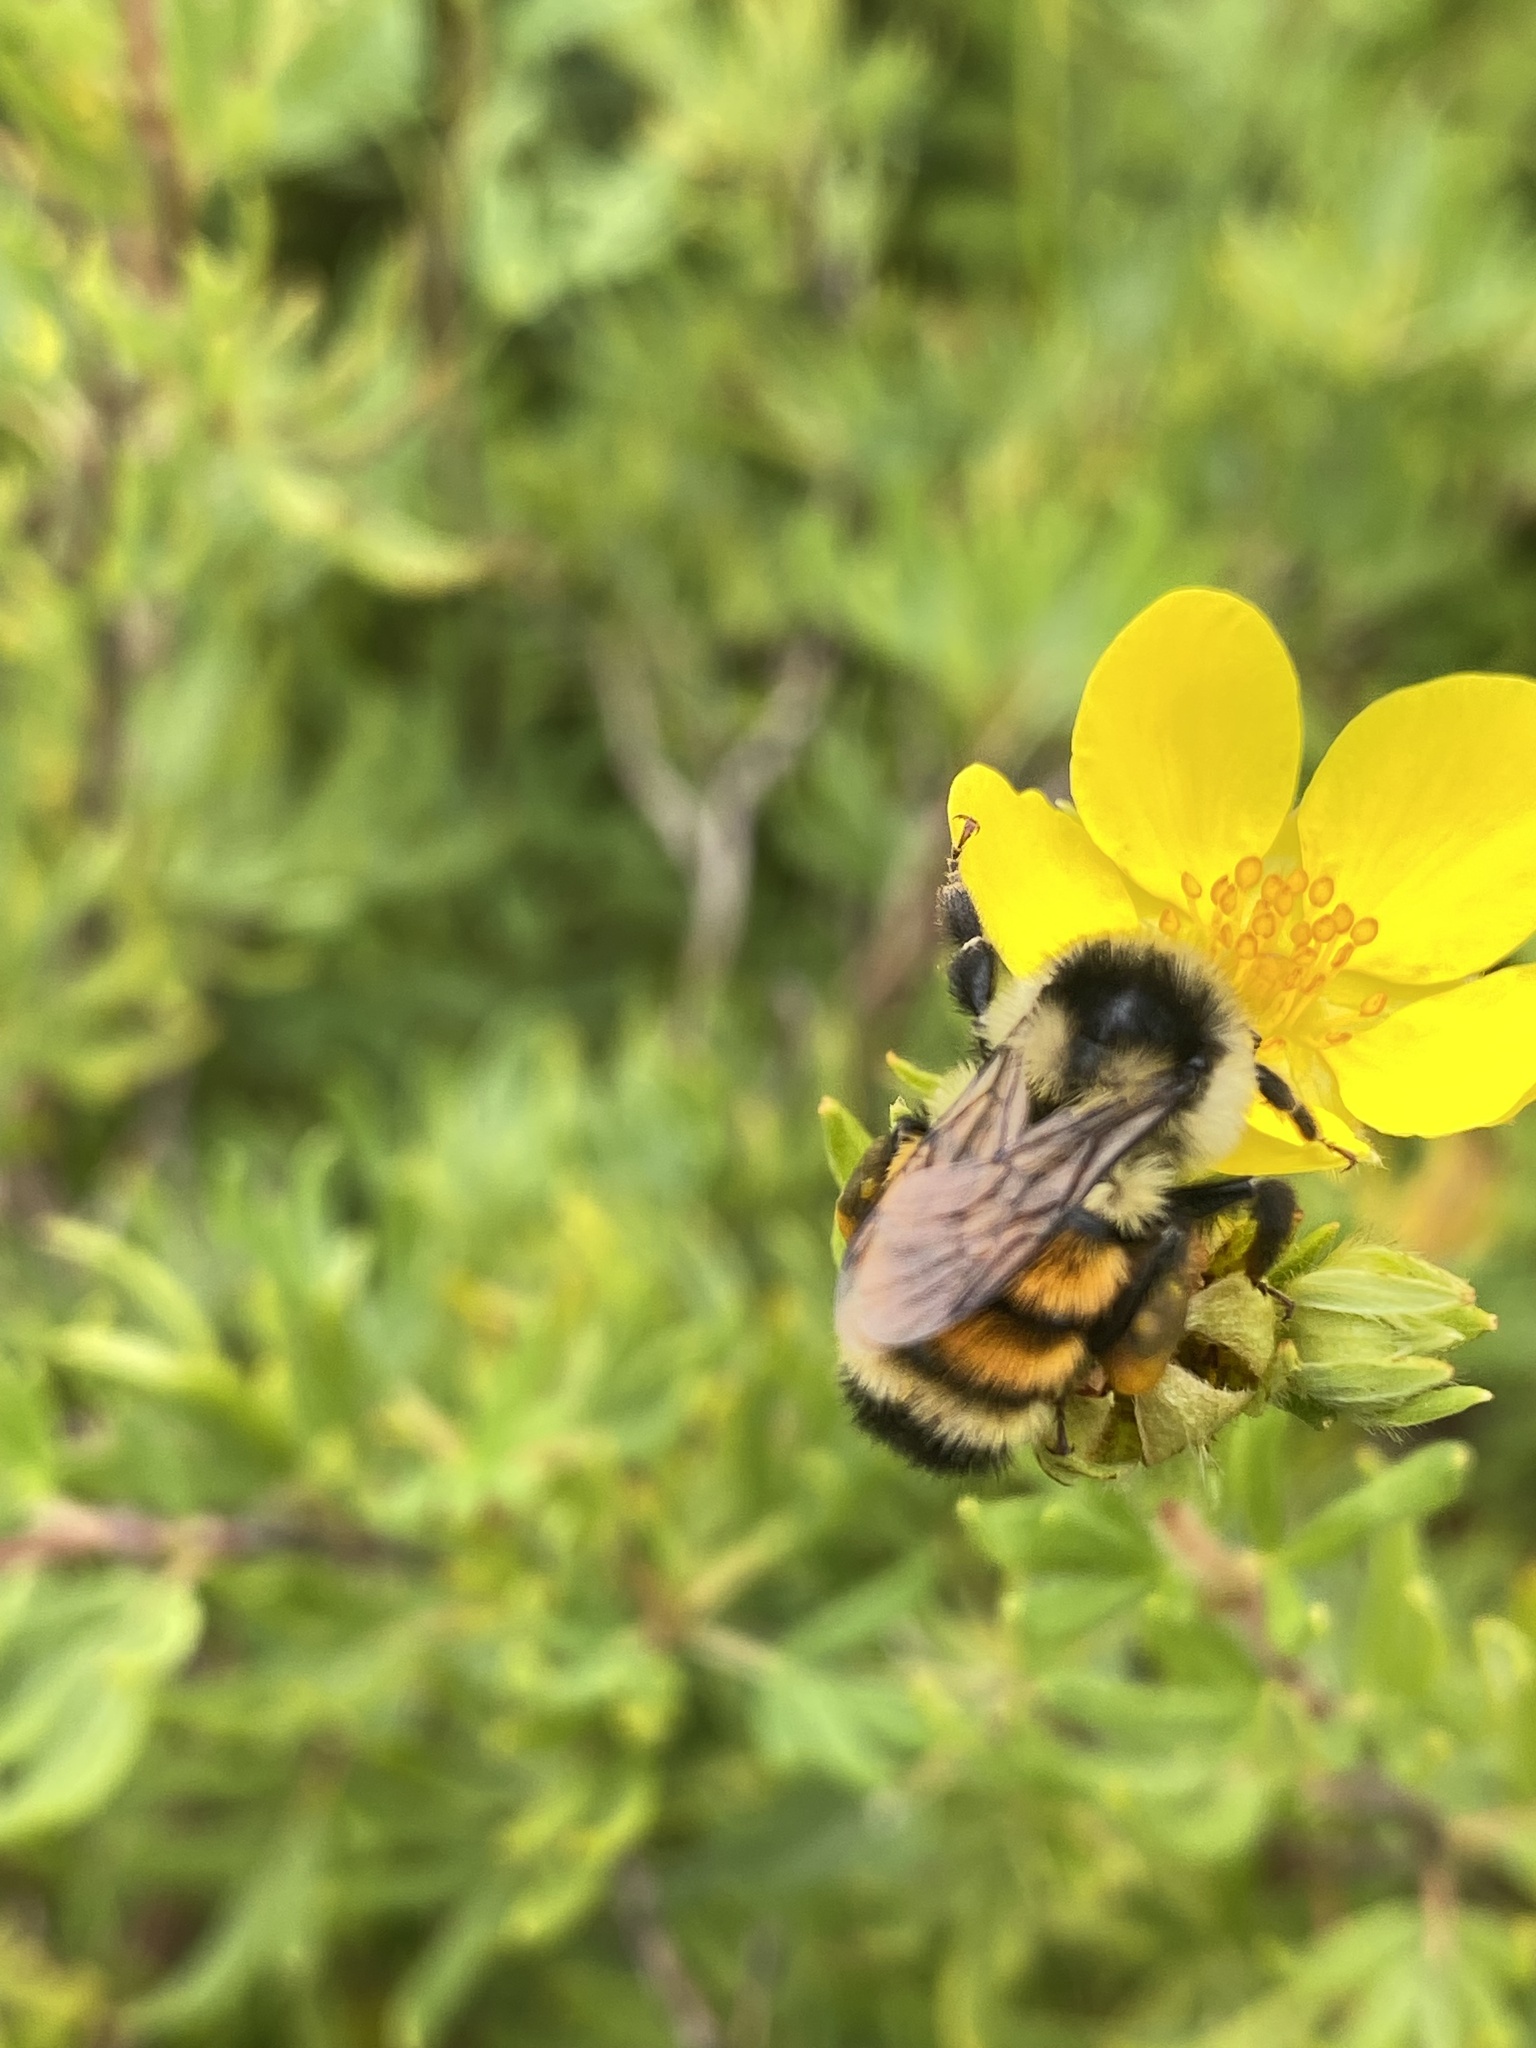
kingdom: Animalia
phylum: Arthropoda
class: Insecta
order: Hymenoptera
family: Apidae
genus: Bombus
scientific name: Bombus ternarius
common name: Tri-colored bumble bee
